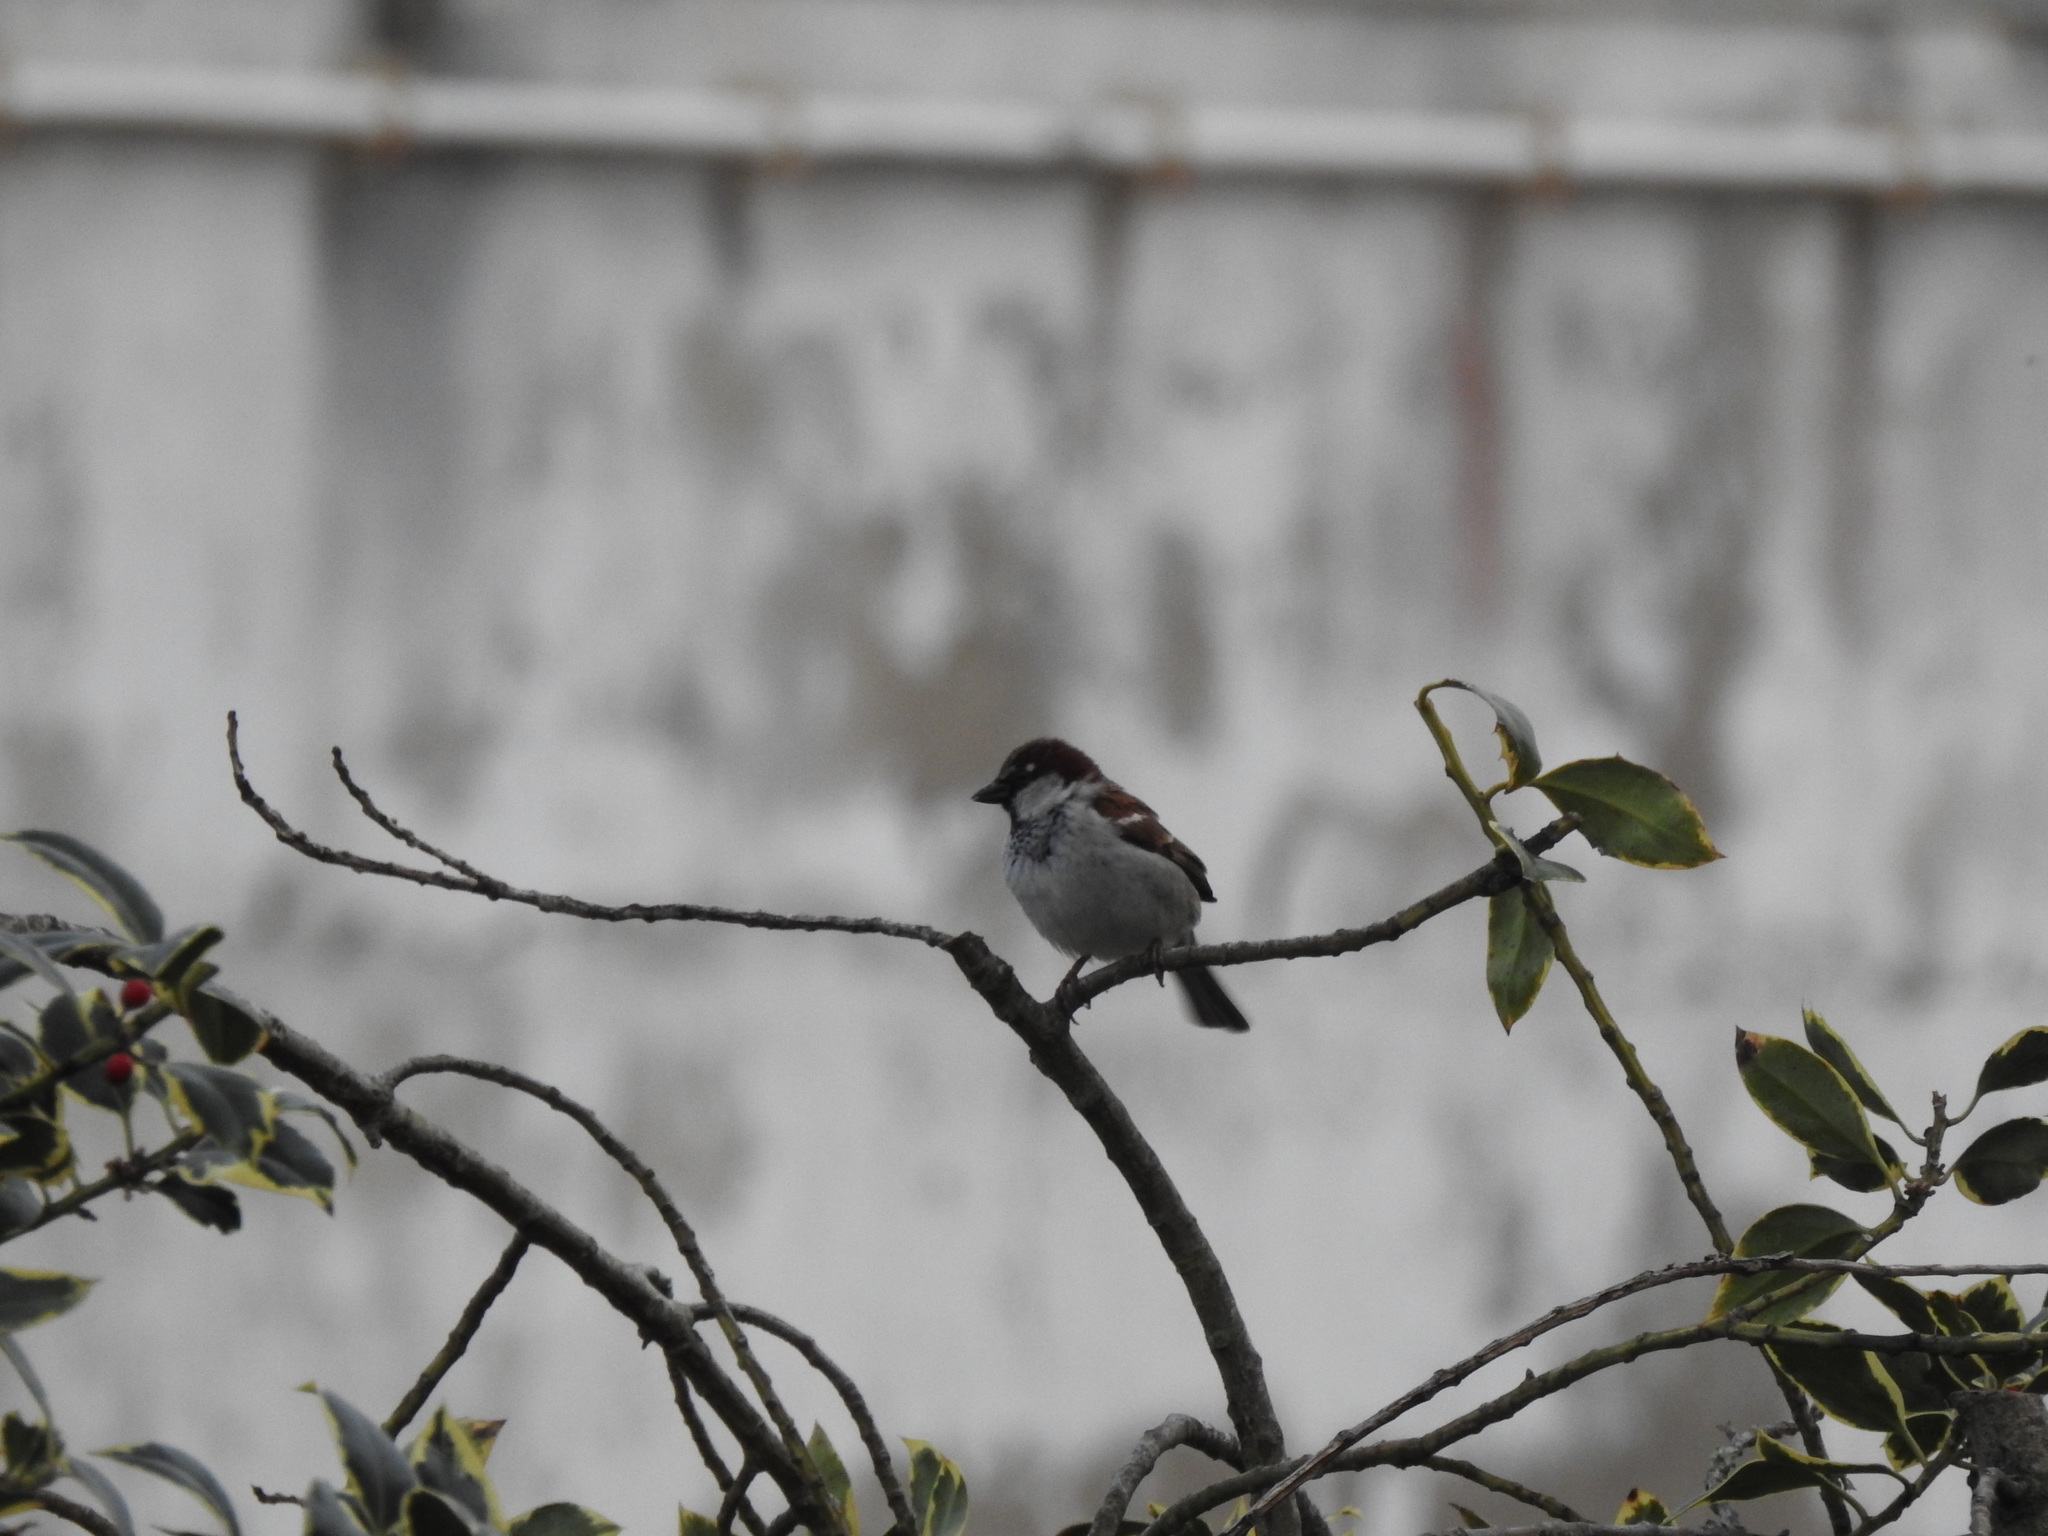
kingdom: Animalia
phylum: Chordata
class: Aves
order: Passeriformes
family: Passeridae
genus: Passer
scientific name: Passer domesticus
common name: House sparrow
